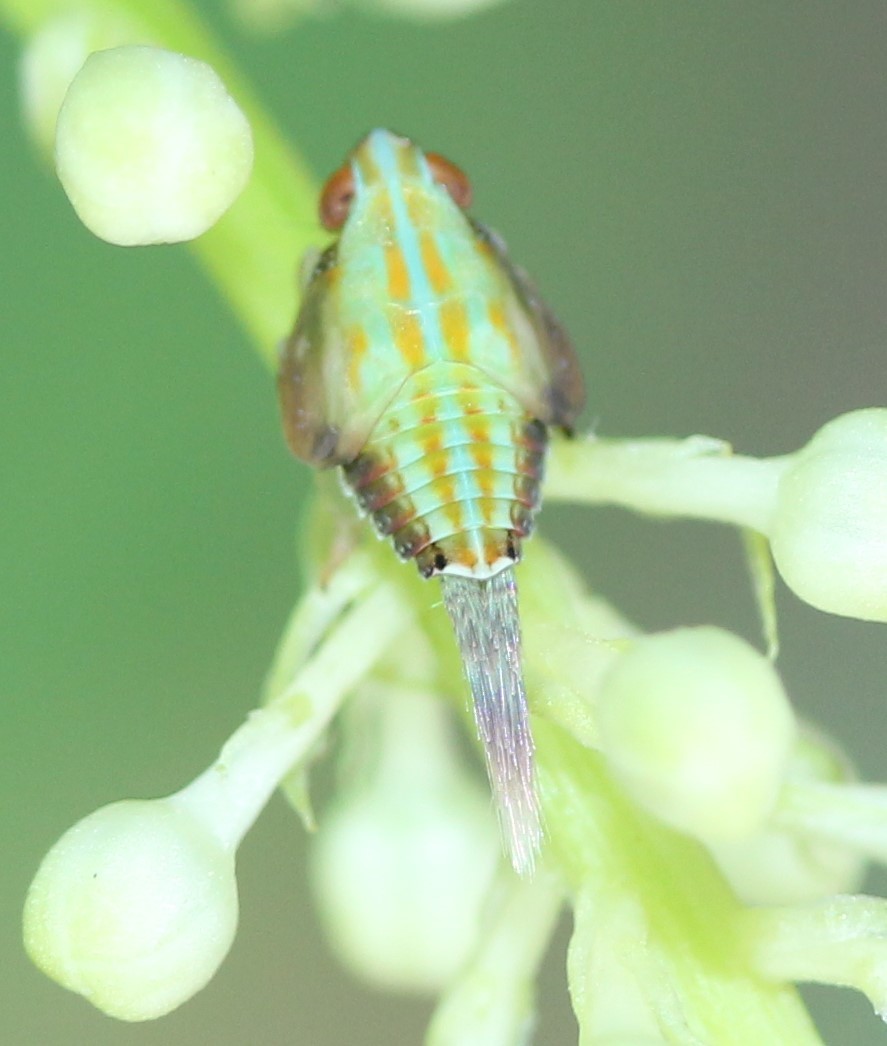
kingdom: Animalia
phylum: Arthropoda
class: Insecta
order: Hemiptera
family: Issidae
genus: Thionia
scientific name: Thionia bullata
